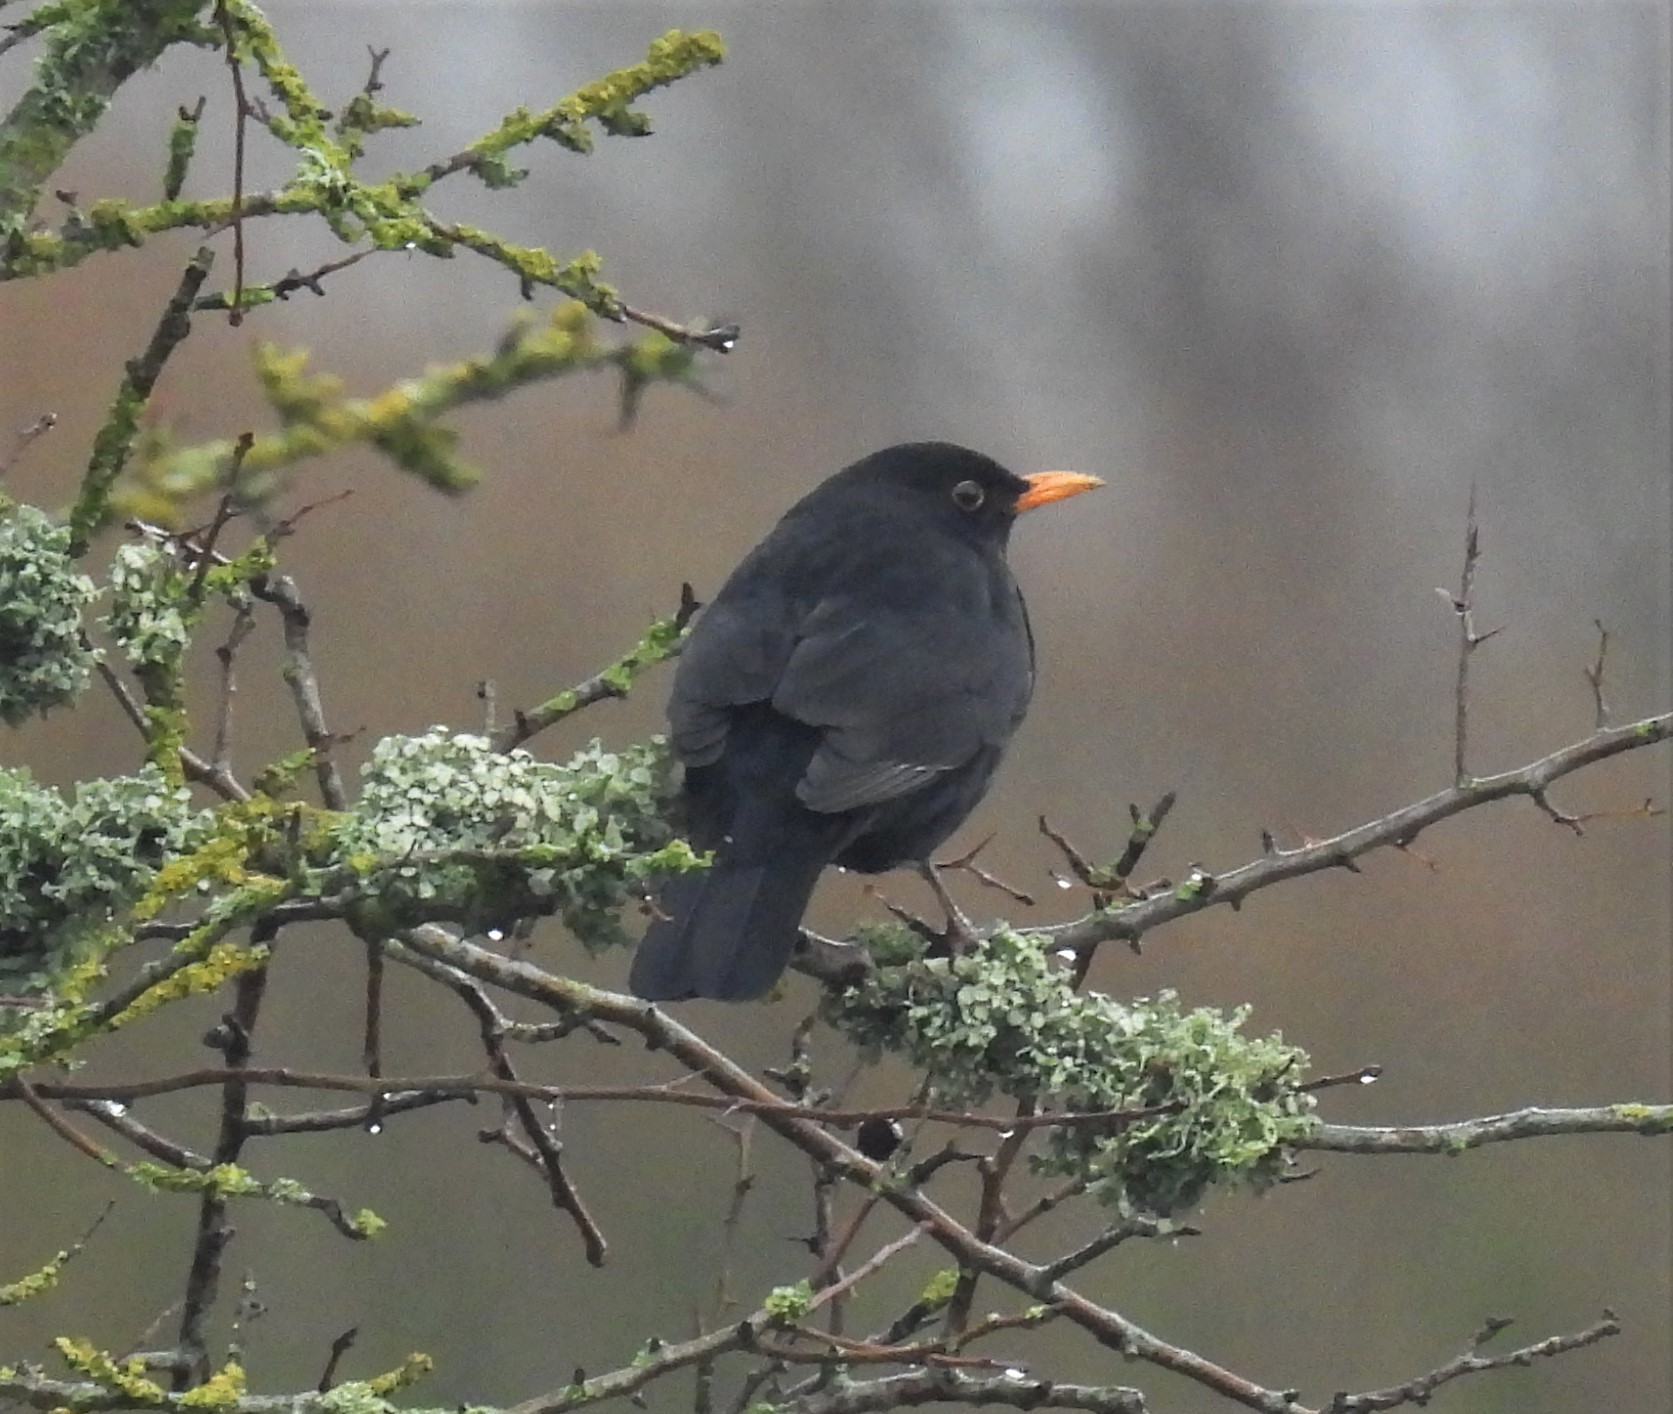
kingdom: Animalia
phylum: Chordata
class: Aves
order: Passeriformes
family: Turdidae
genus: Turdus
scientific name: Turdus merula
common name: Common blackbird
